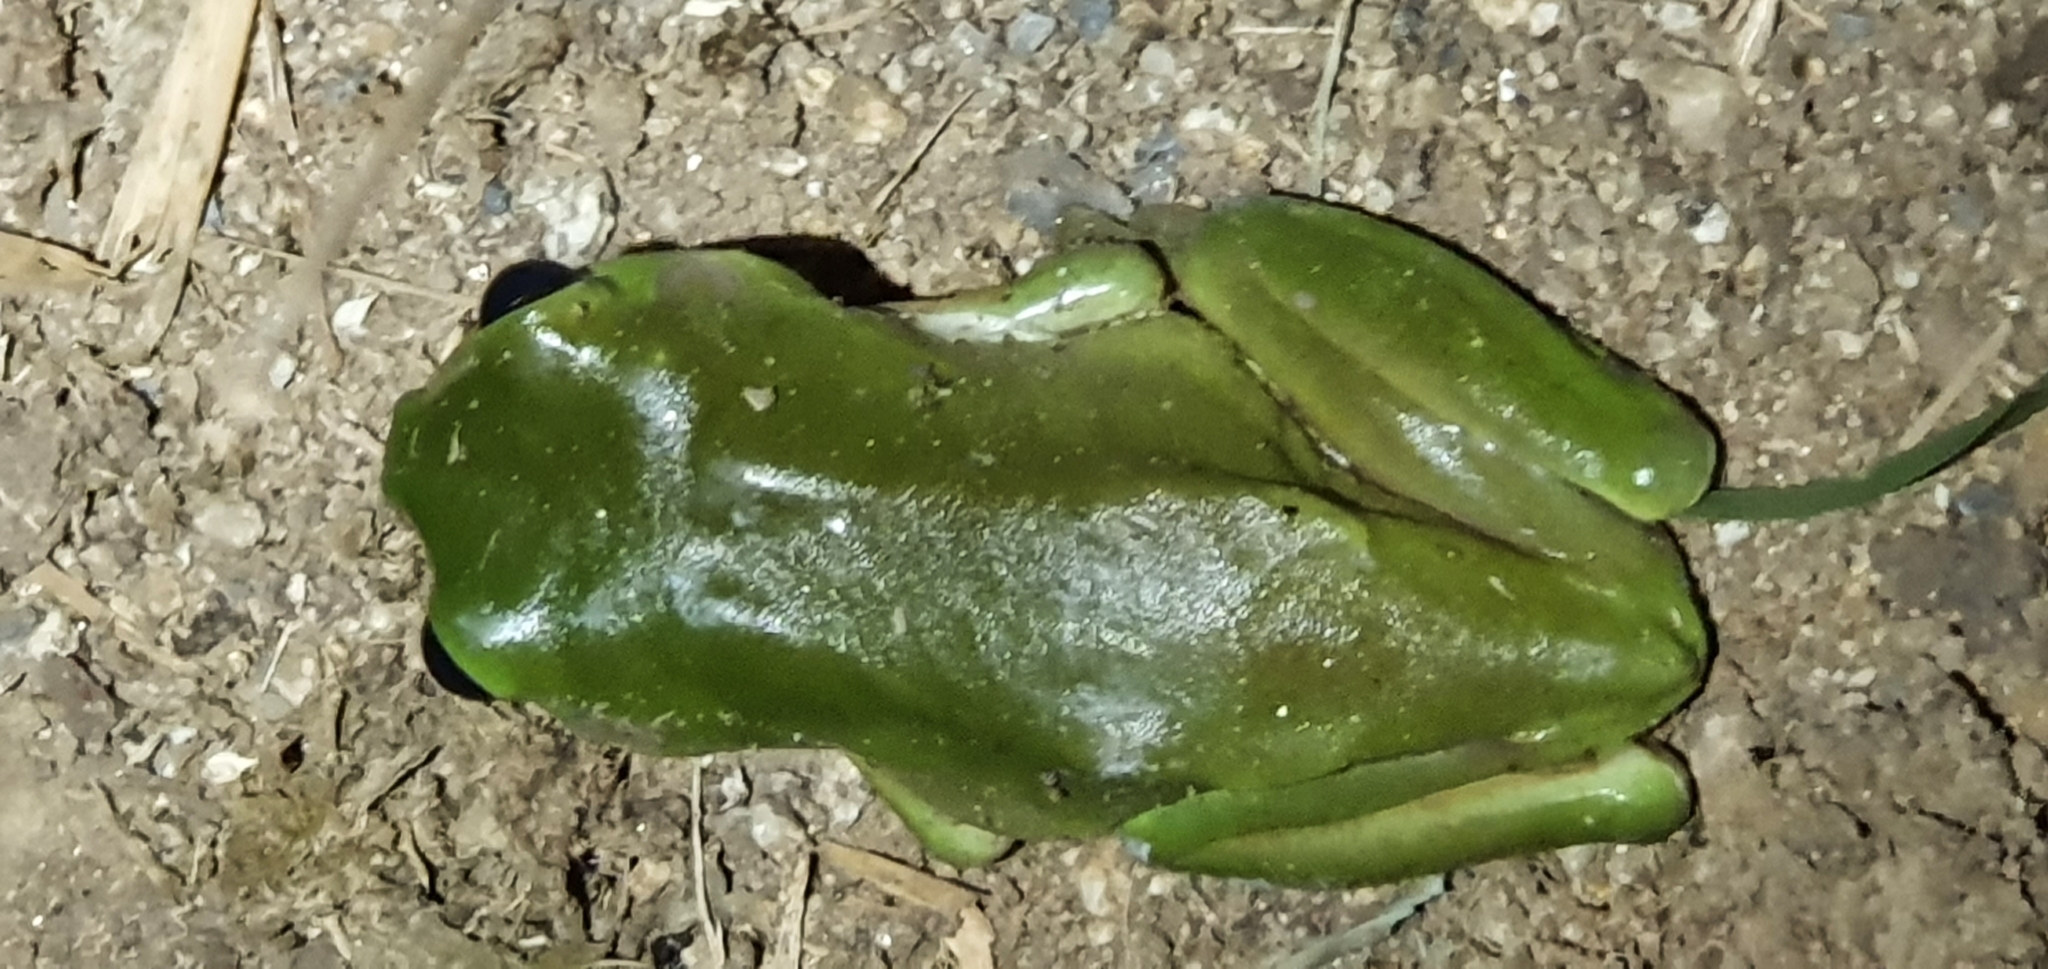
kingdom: Animalia
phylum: Chordata
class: Amphibia
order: Anura
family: Pelodryadidae
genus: Ranoidea
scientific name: Ranoidea caerulea
